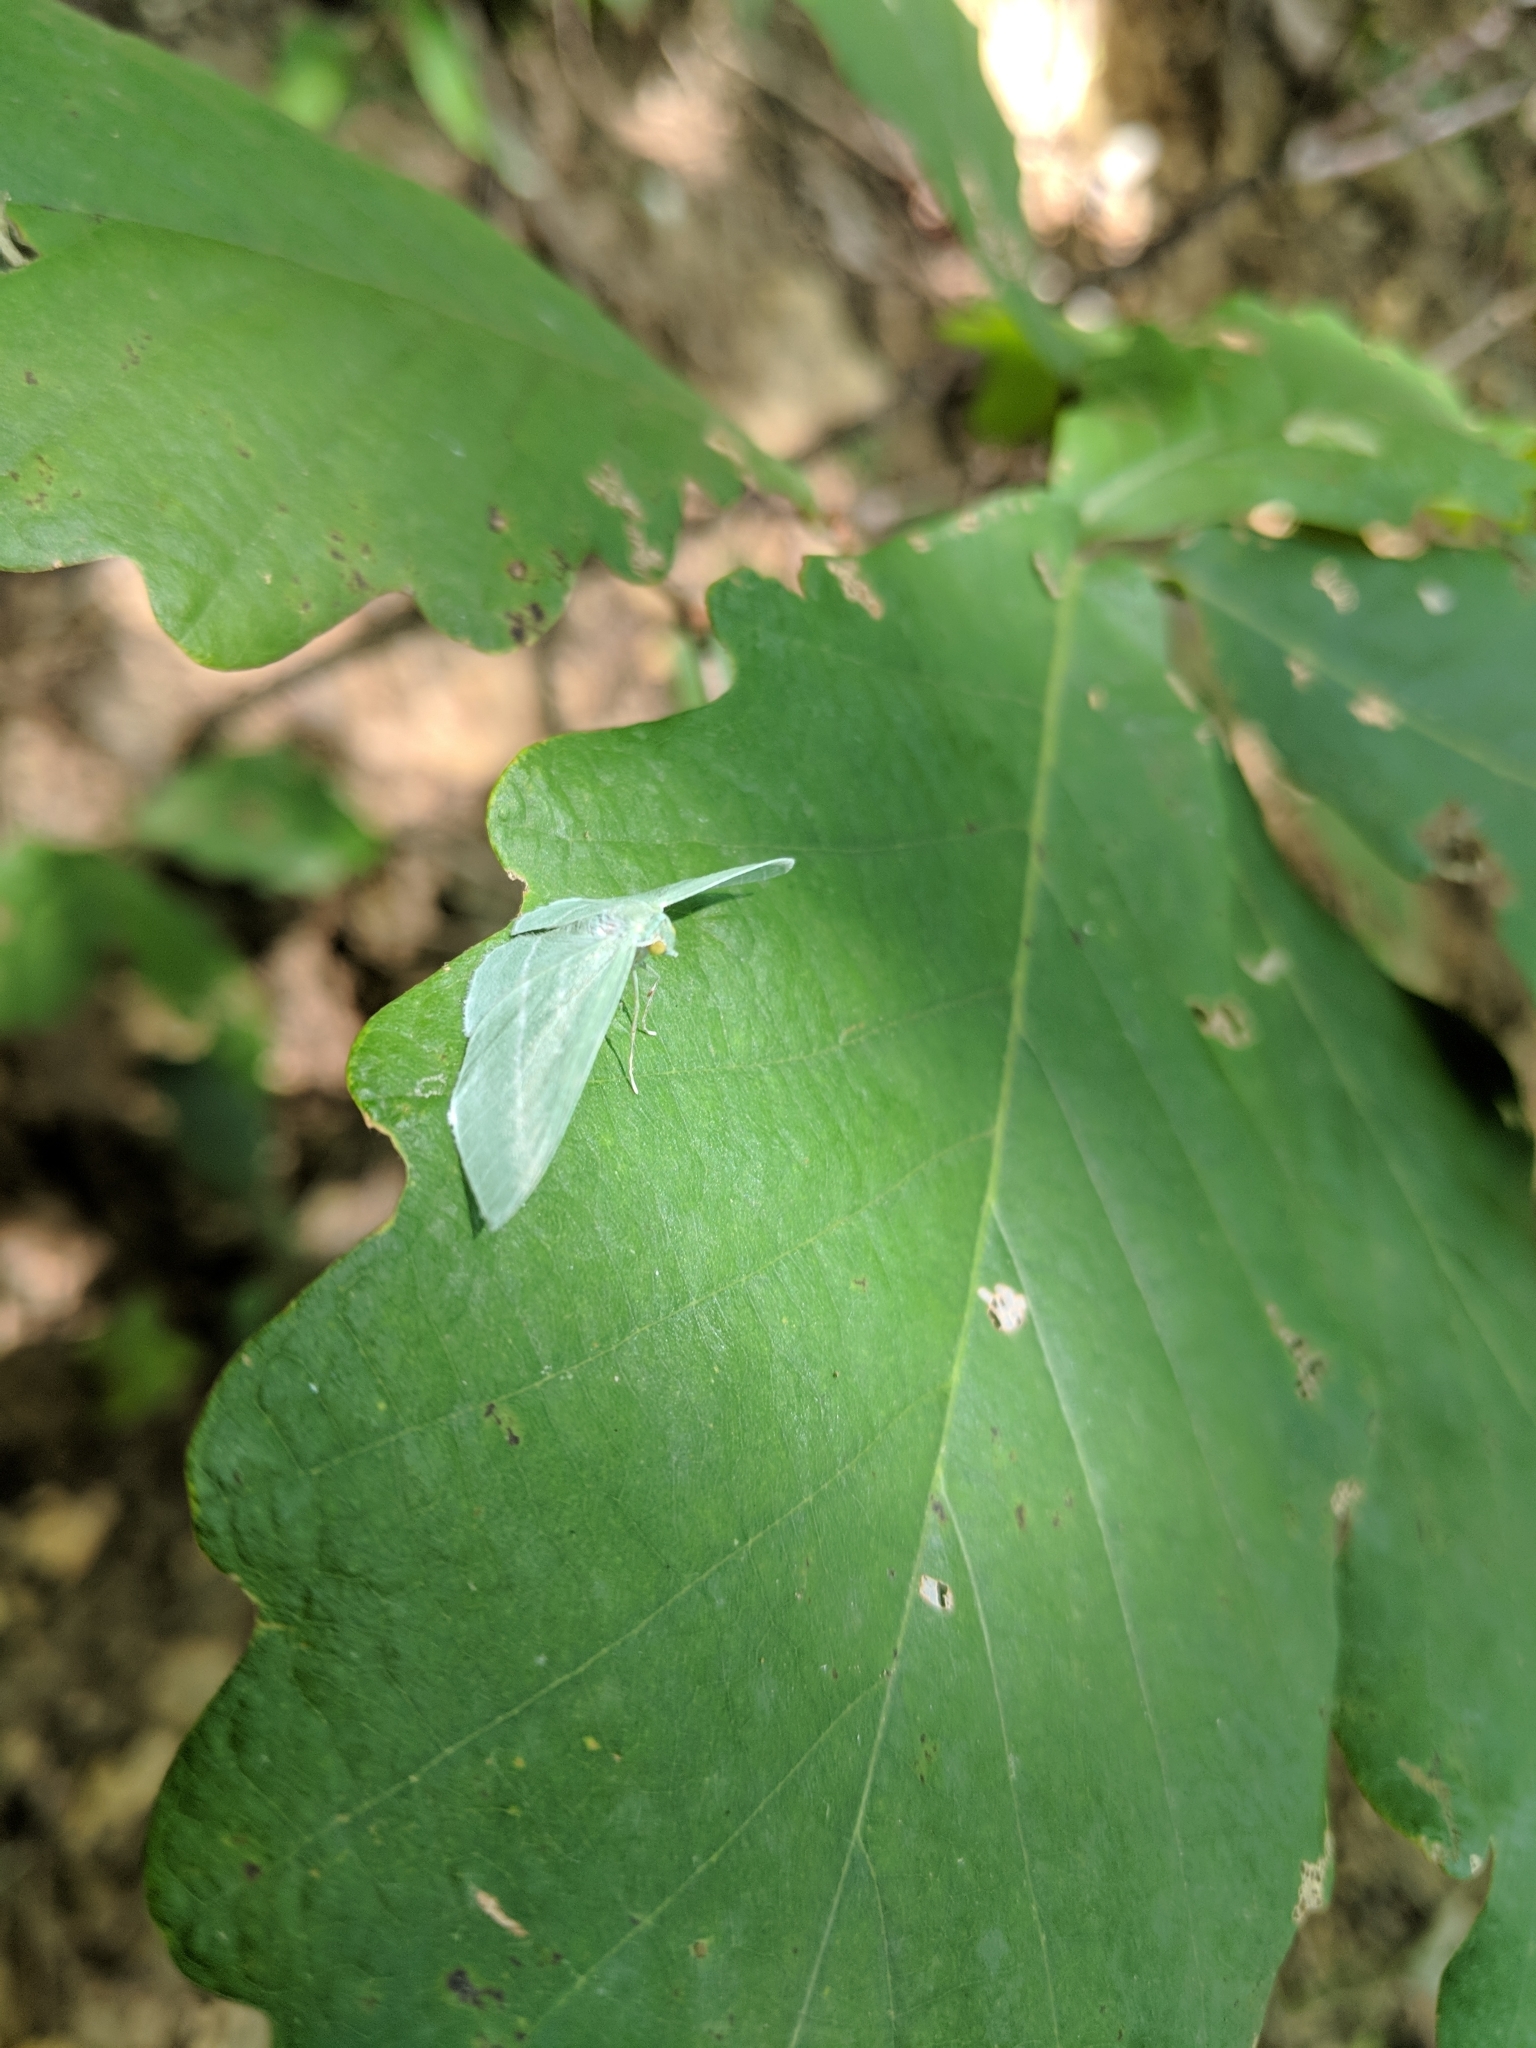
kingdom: Animalia
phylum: Arthropoda
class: Insecta
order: Lepidoptera
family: Geometridae
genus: Dyspteris
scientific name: Dyspteris abortivaria
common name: Bad-wing
